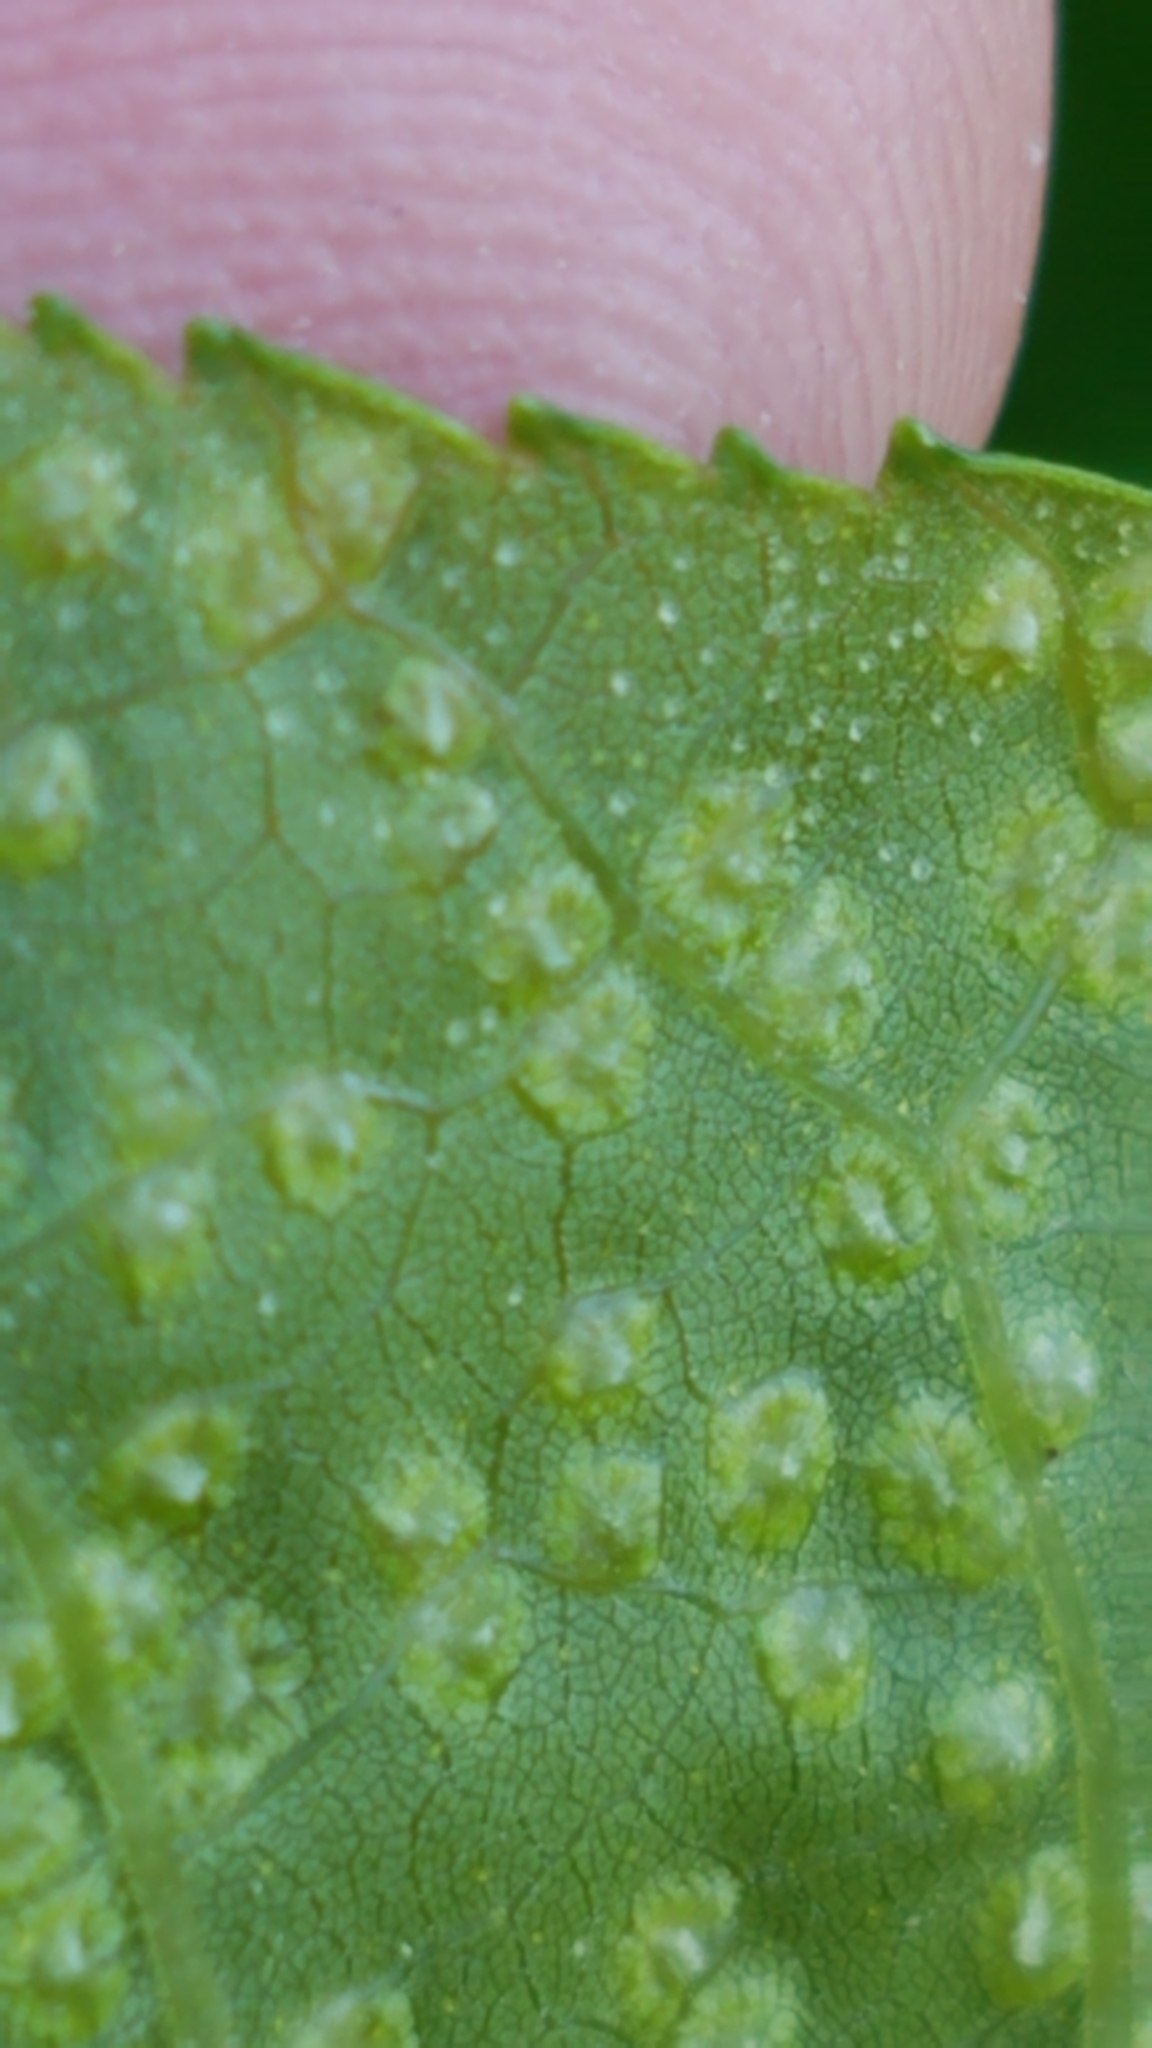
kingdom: Animalia
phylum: Arthropoda
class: Insecta
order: Hemiptera
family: Phylloxeridae
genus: Phylloxera
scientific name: Phylloxera caryae-semen
